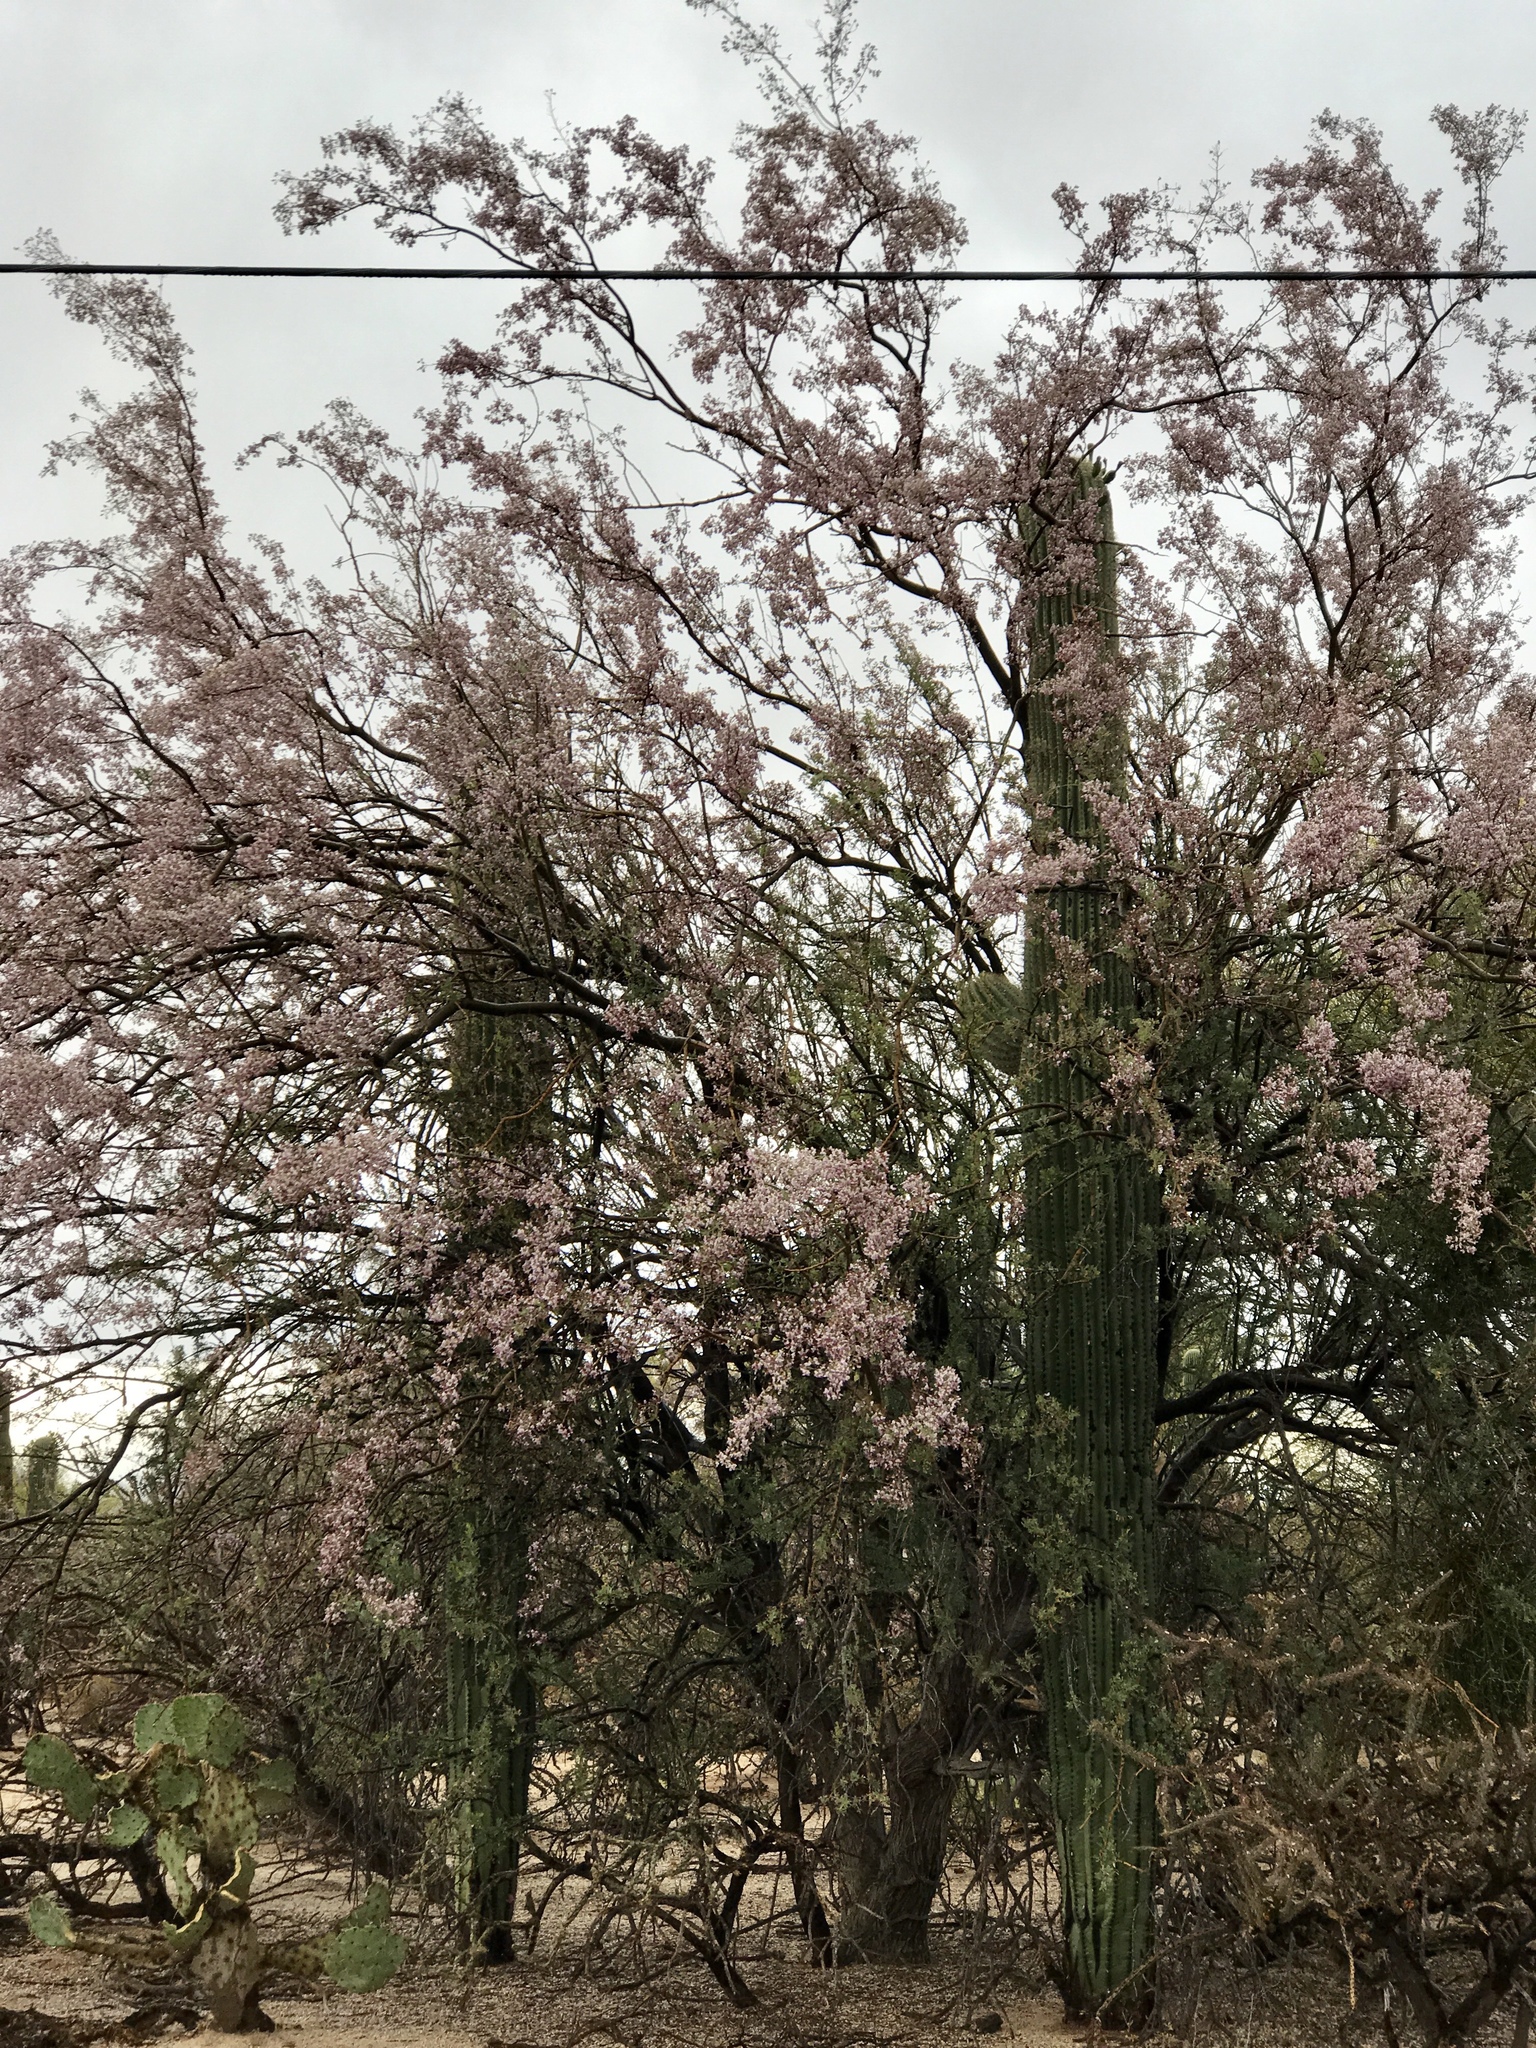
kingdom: Plantae
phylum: Tracheophyta
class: Magnoliopsida
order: Caryophyllales
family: Cactaceae
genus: Carnegiea
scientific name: Carnegiea gigantea
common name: Saguaro
